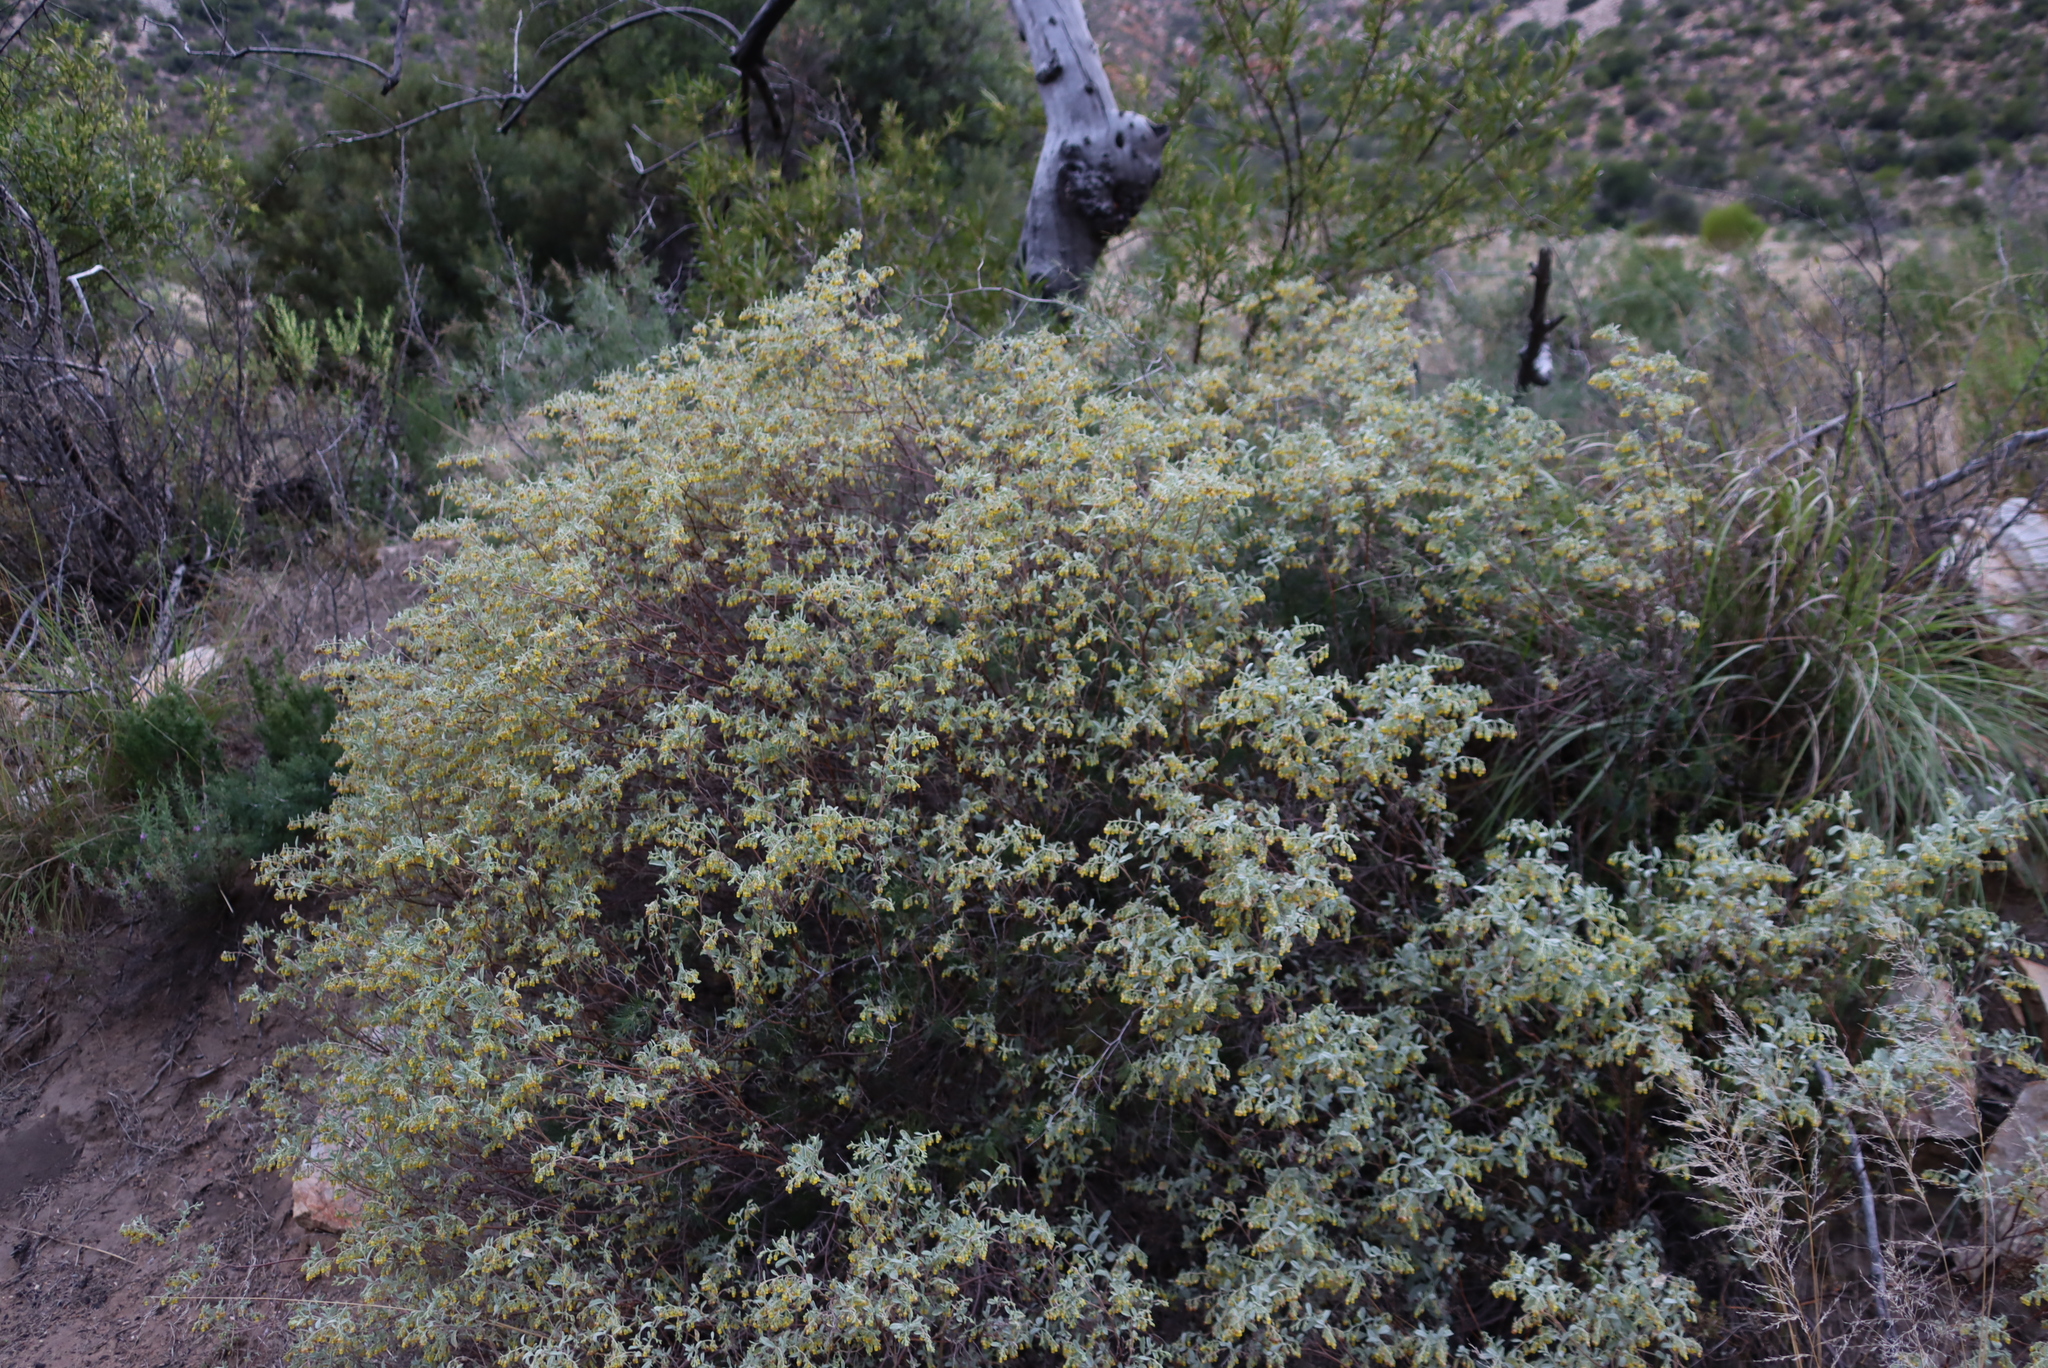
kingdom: Plantae
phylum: Tracheophyta
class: Magnoliopsida
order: Malvales
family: Malvaceae
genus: Hermannia
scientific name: Hermannia holosericea
